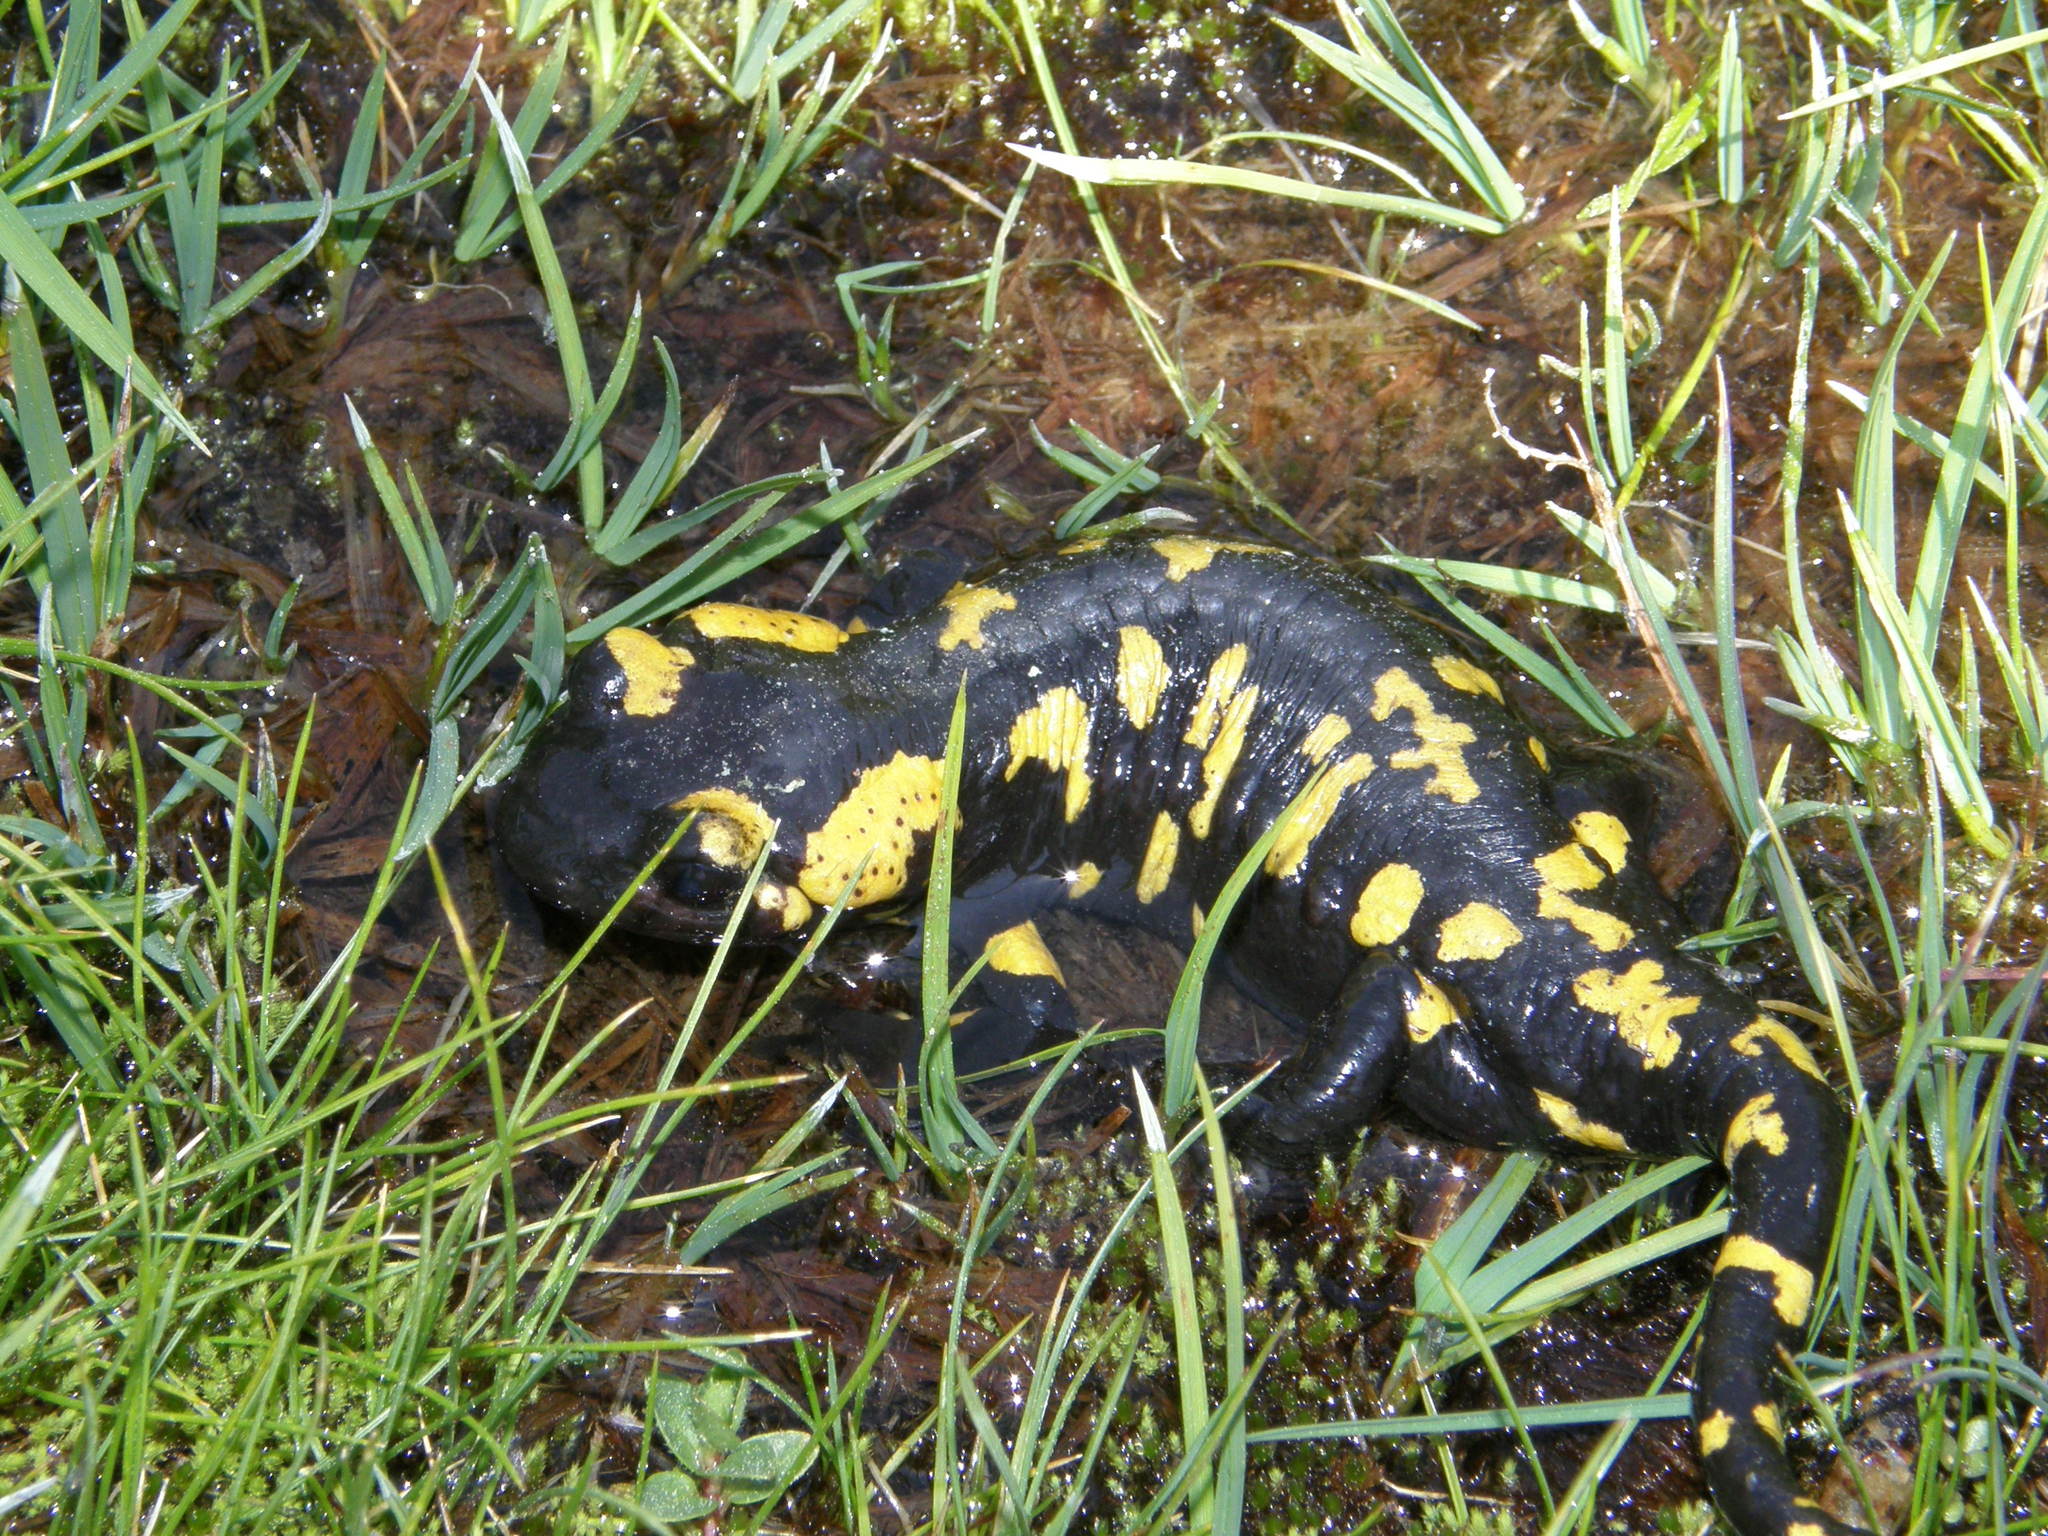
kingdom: Animalia
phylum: Chordata
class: Amphibia
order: Caudata
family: Salamandridae
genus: Salamandra
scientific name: Salamandra salamandra
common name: Fire salamander
